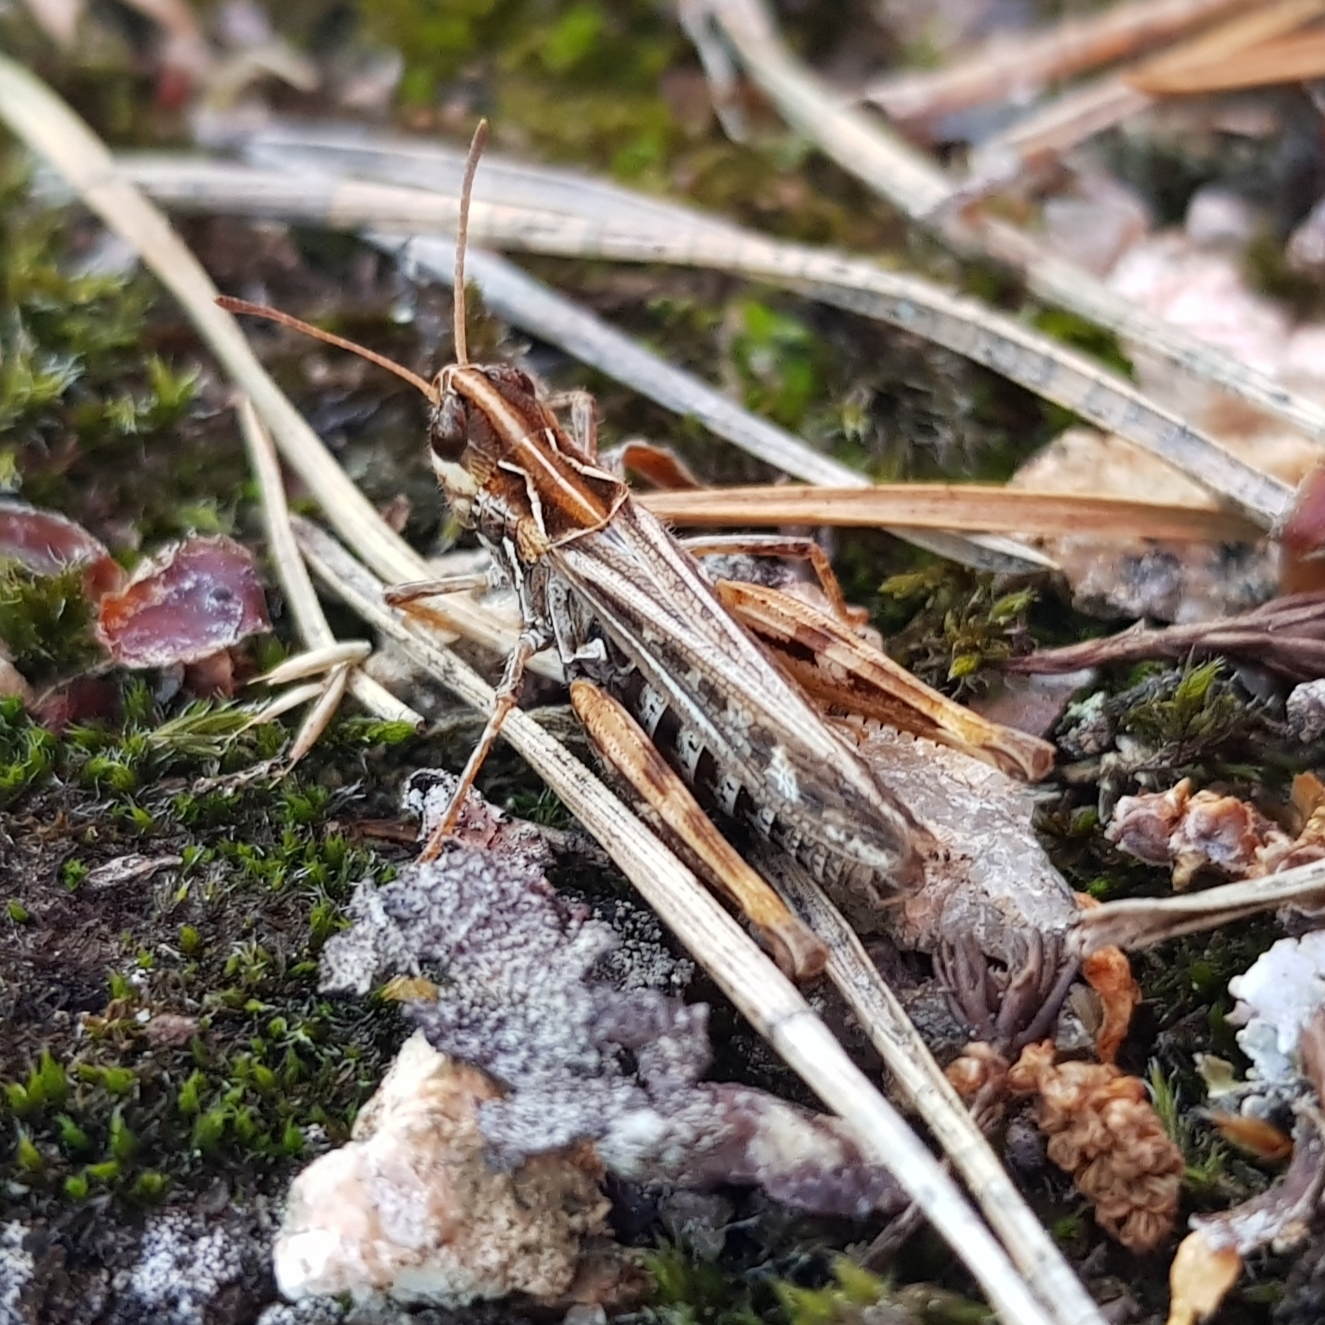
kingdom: Animalia
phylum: Arthropoda
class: Insecta
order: Orthoptera
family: Acrididae
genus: Myrmeleotettix
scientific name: Myrmeleotettix maculatus
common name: Mottled grasshopper
